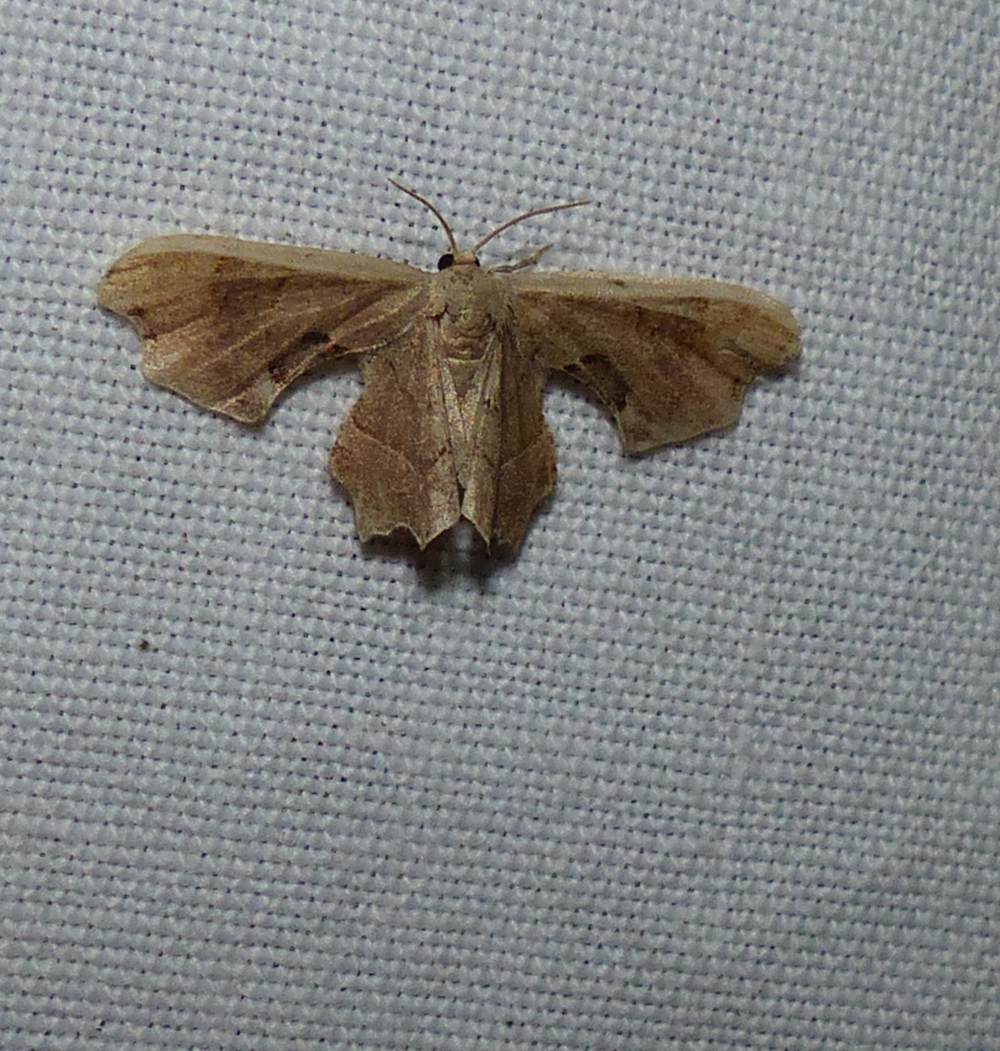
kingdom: Animalia
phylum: Arthropoda
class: Insecta
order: Lepidoptera
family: Uraniidae
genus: Epiplema
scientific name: Epiplema Calledapteryx dryopterata
